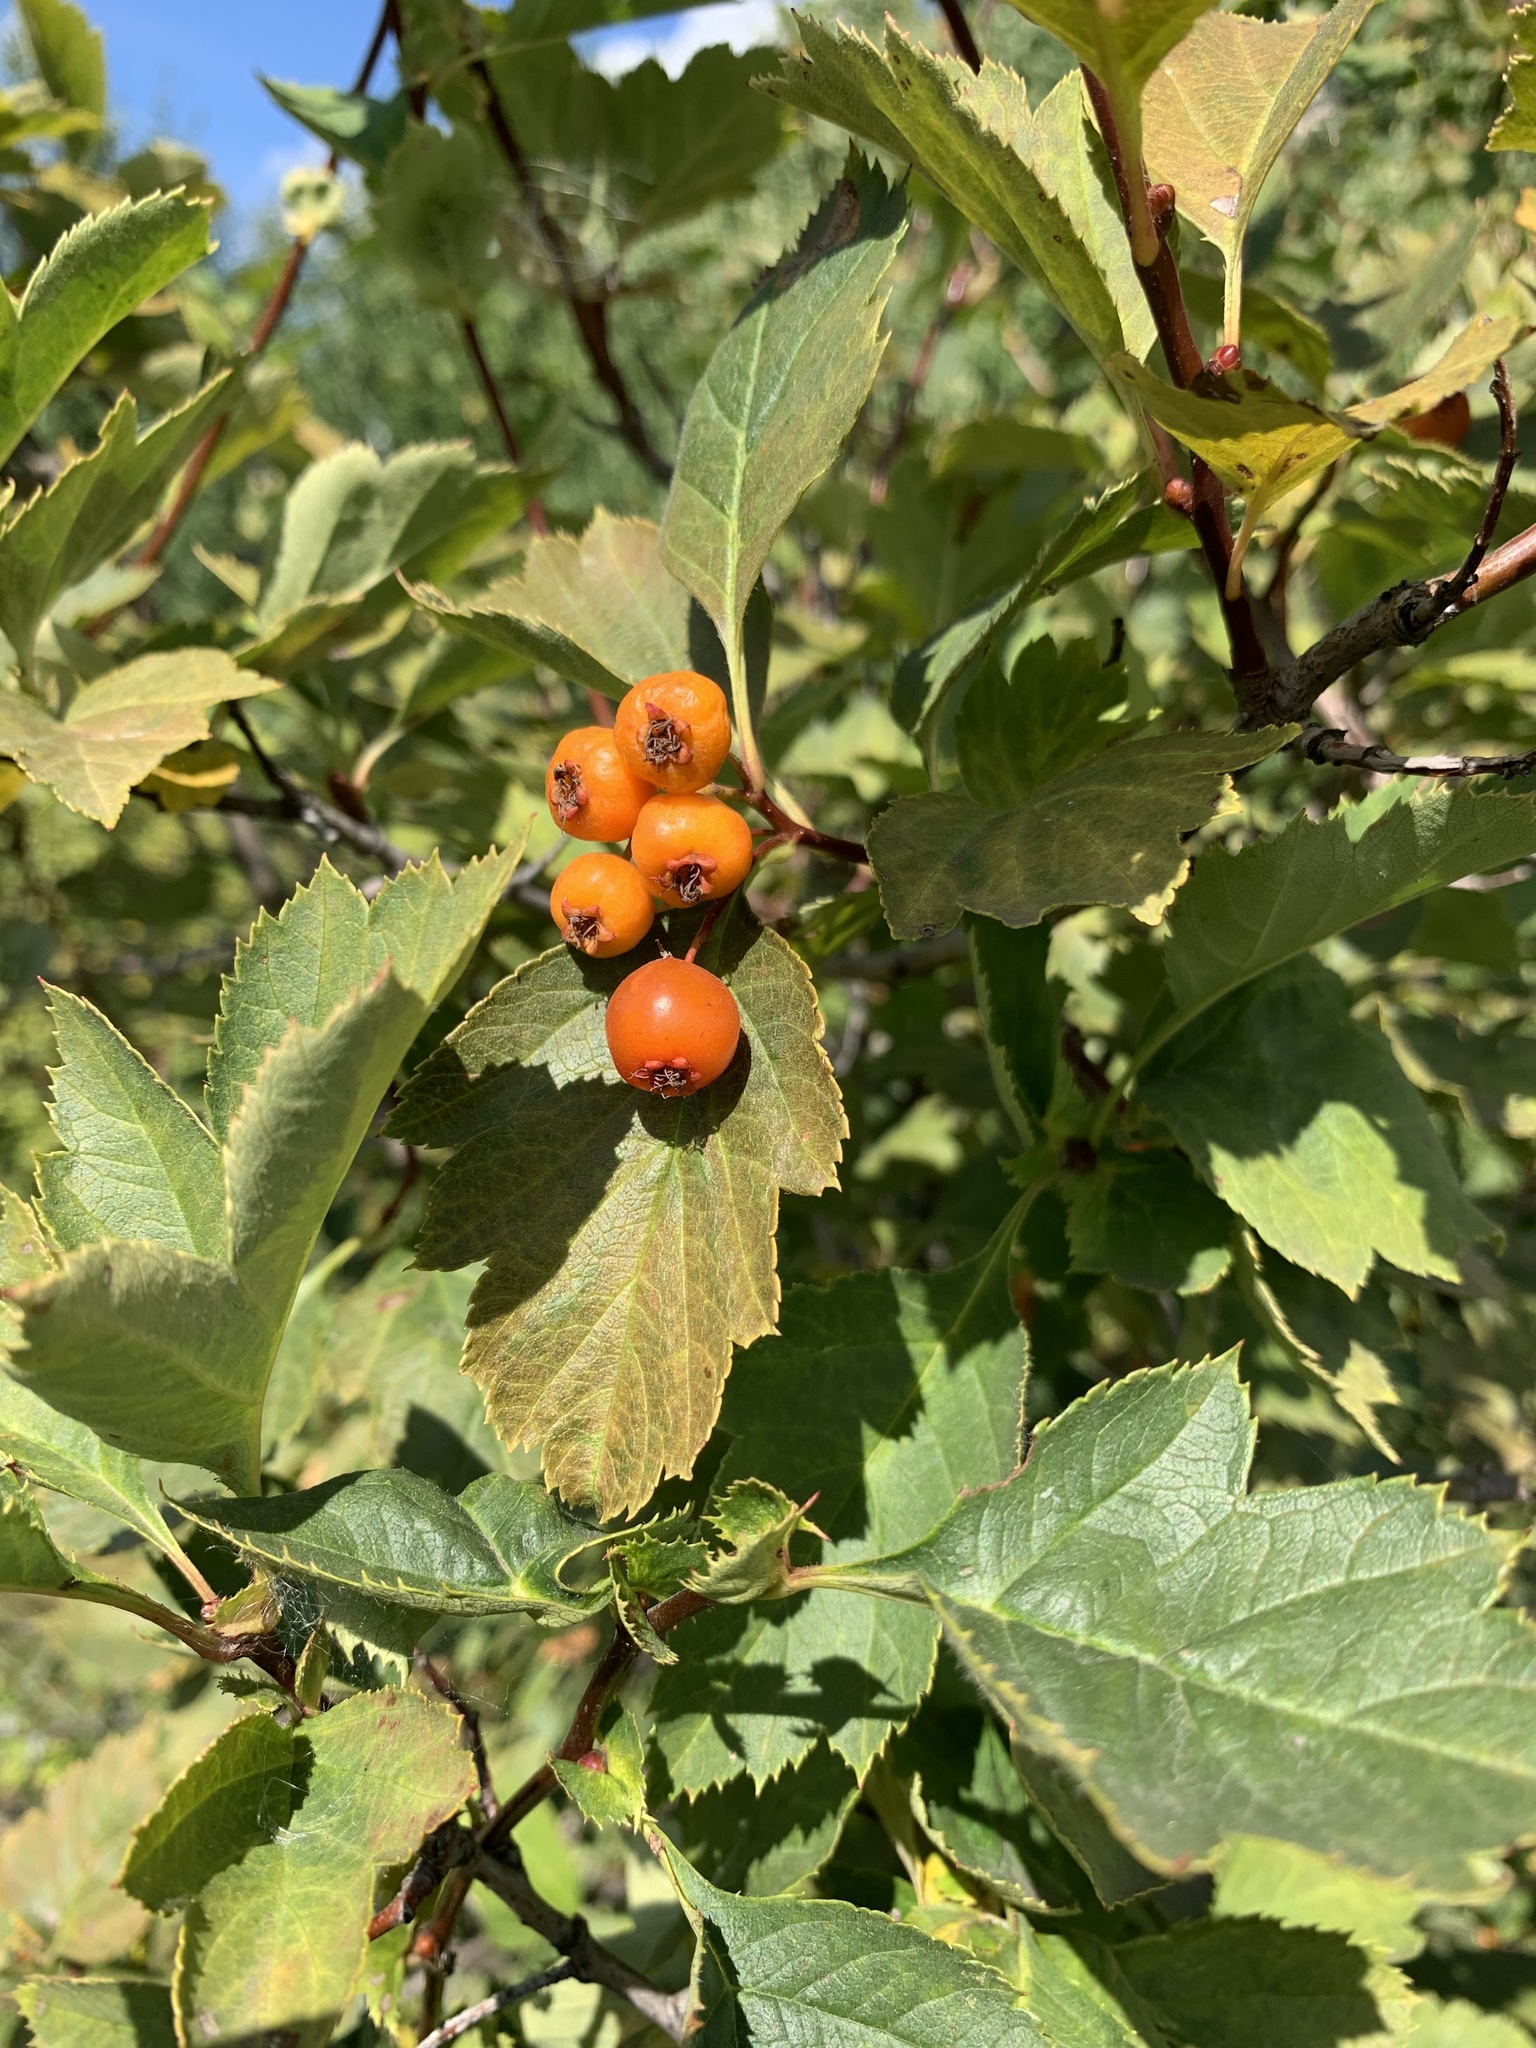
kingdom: Plantae
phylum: Tracheophyta
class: Magnoliopsida
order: Rosales
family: Rosaceae
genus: Crataegus
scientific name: Crataegus sanguinea
